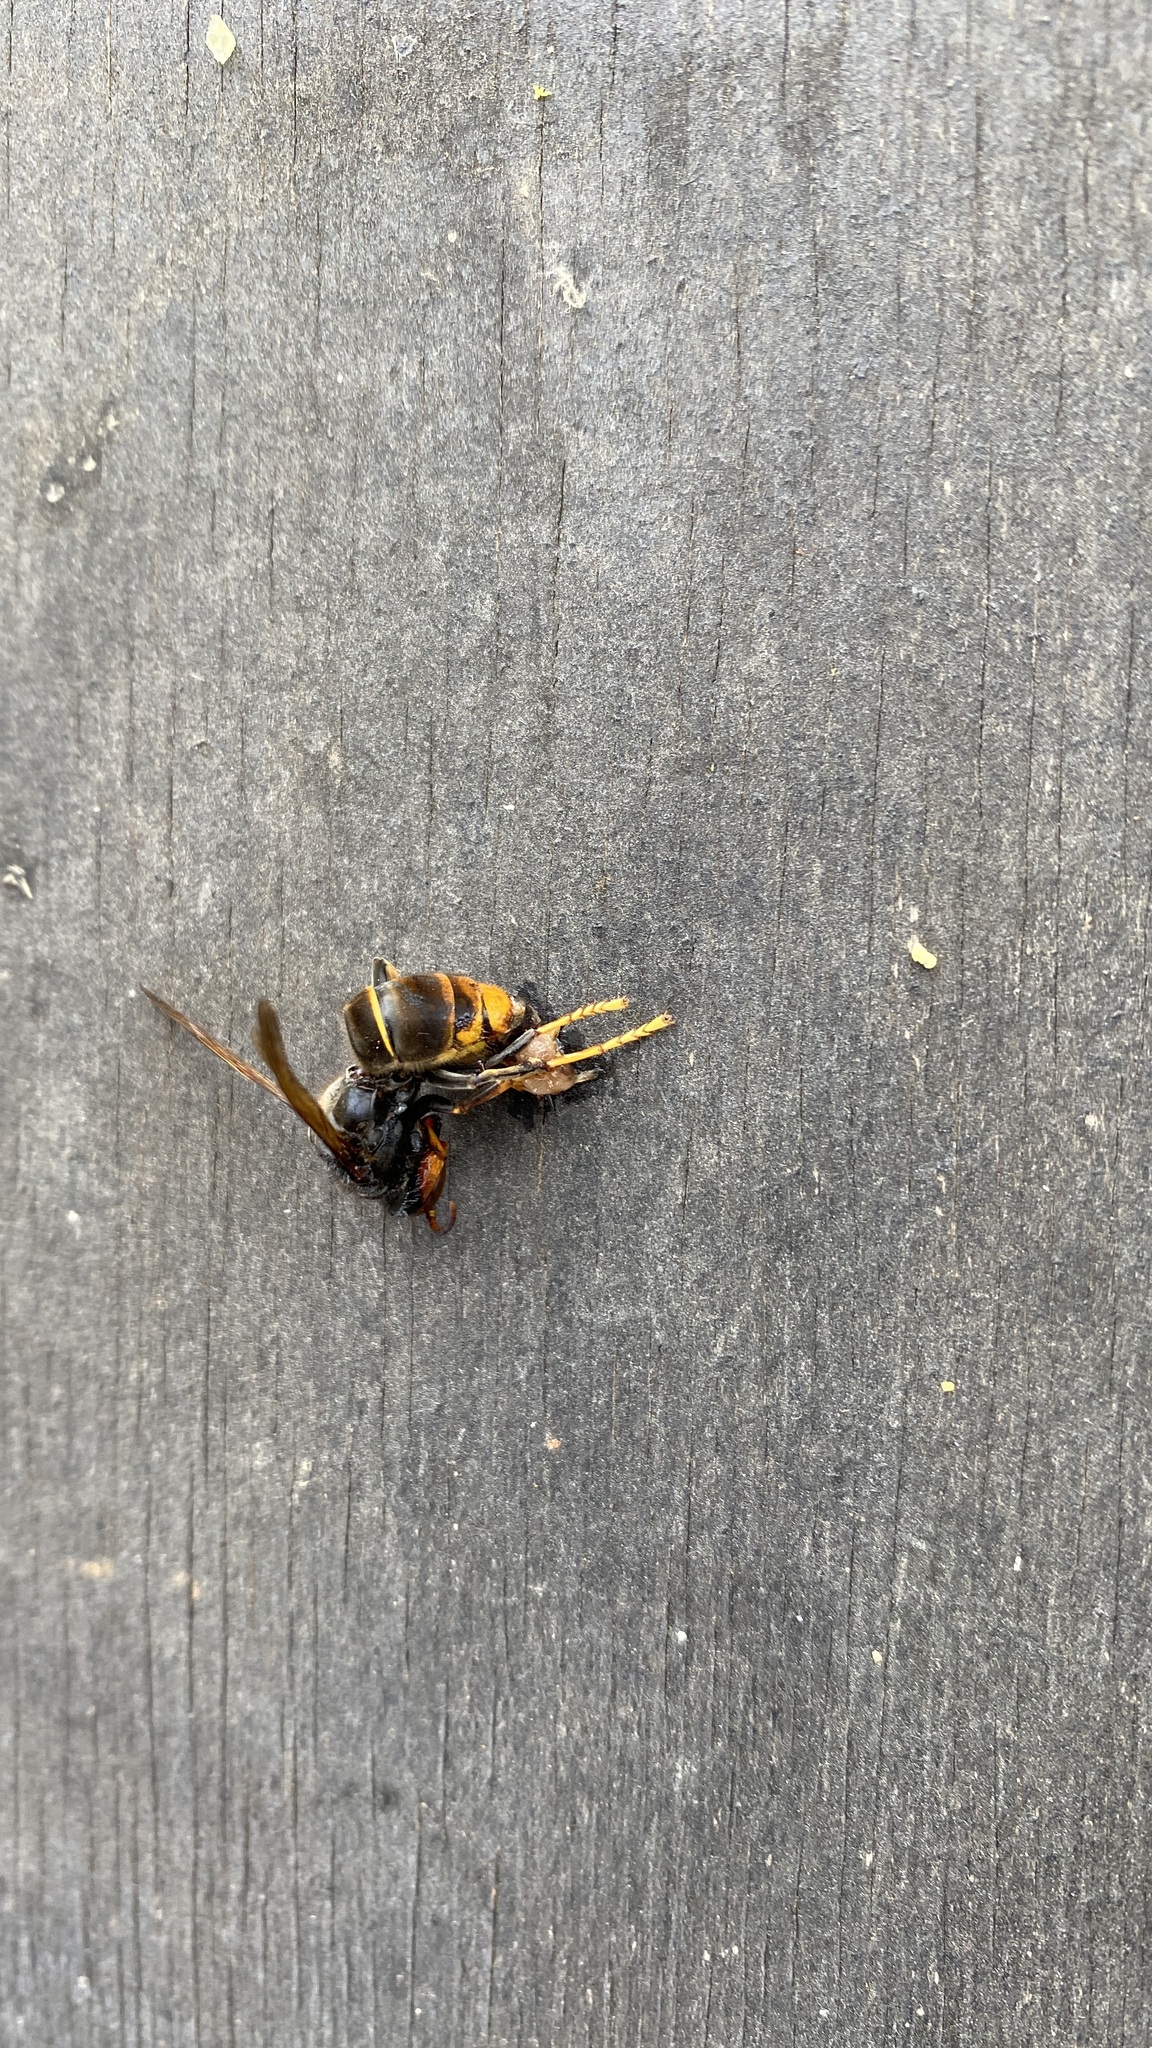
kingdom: Animalia
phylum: Arthropoda
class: Insecta
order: Hymenoptera
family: Vespidae
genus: Vespa
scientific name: Vespa velutina
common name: Asian hornet
